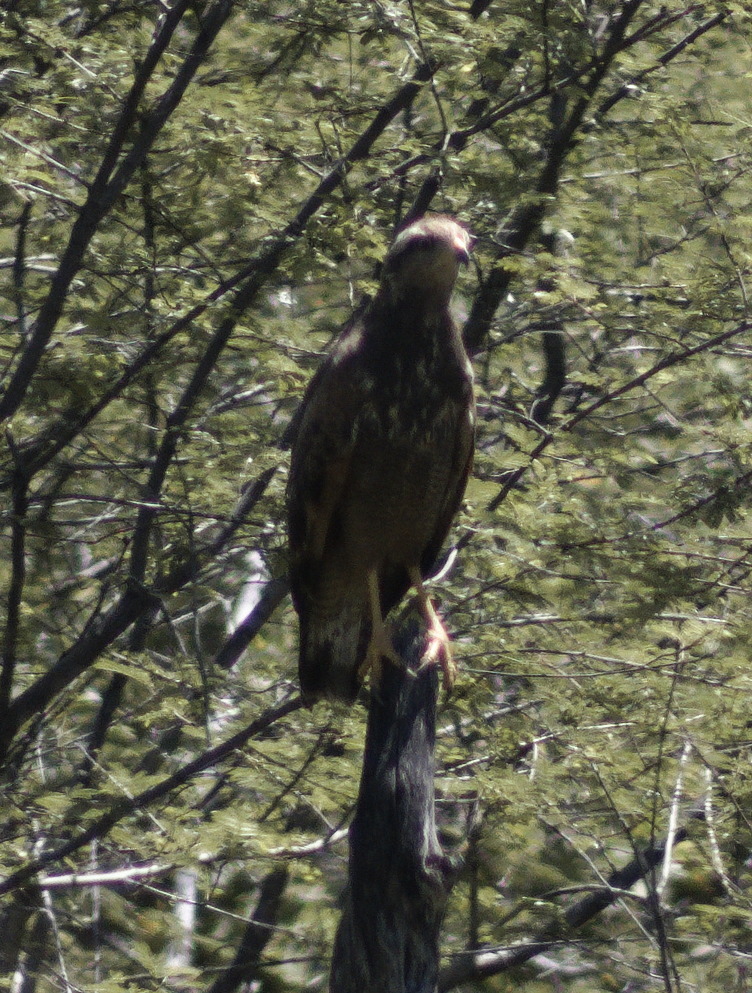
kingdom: Animalia
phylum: Chordata
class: Aves
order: Accipitriformes
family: Accipitridae
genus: Buteogallus
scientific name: Buteogallus meridionalis
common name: Savanna hawk
